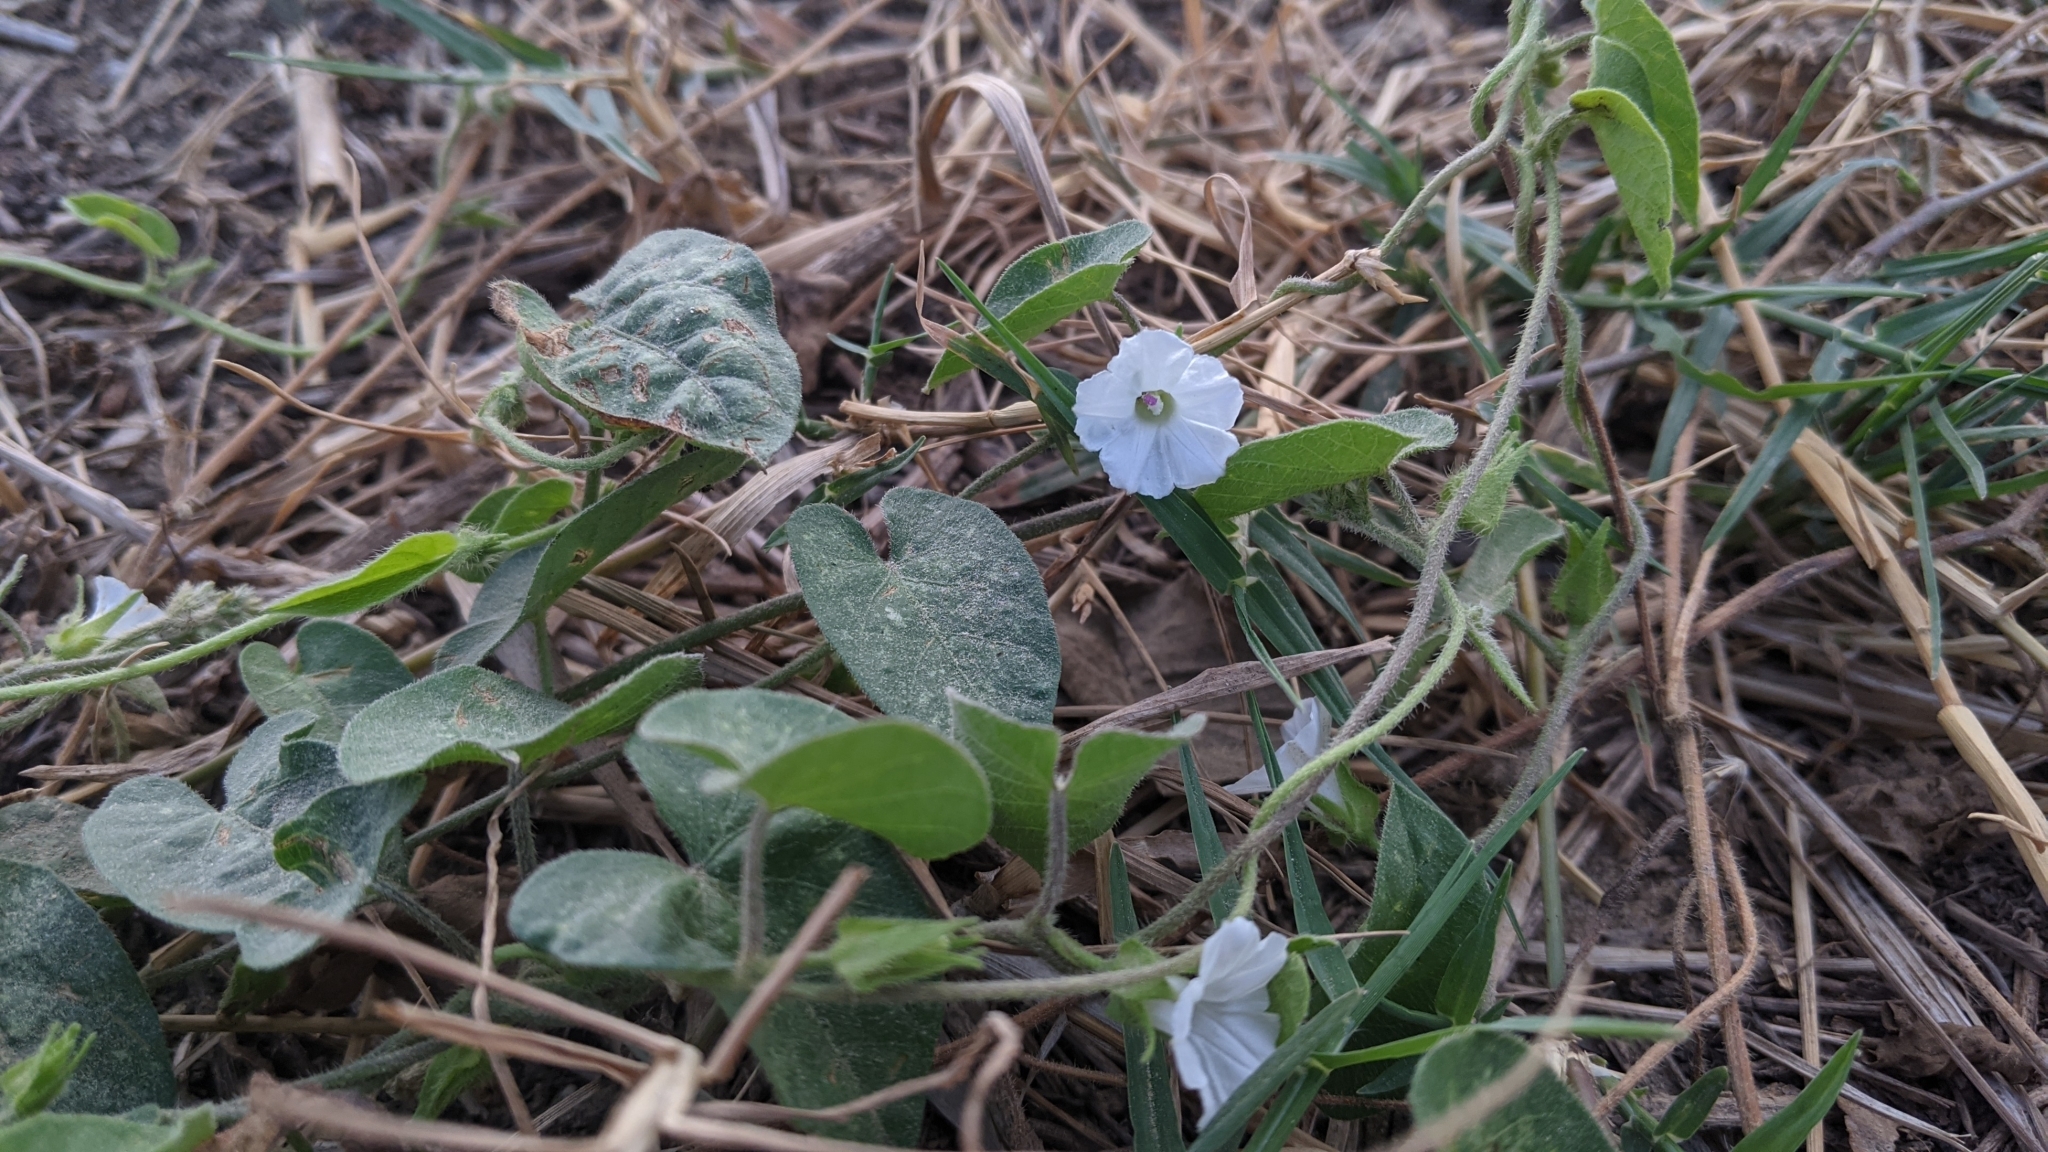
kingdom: Plantae
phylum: Tracheophyta
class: Magnoliopsida
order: Solanales
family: Convolvulaceae
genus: Ipomoea
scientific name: Ipomoea biflora
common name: Bellvine
